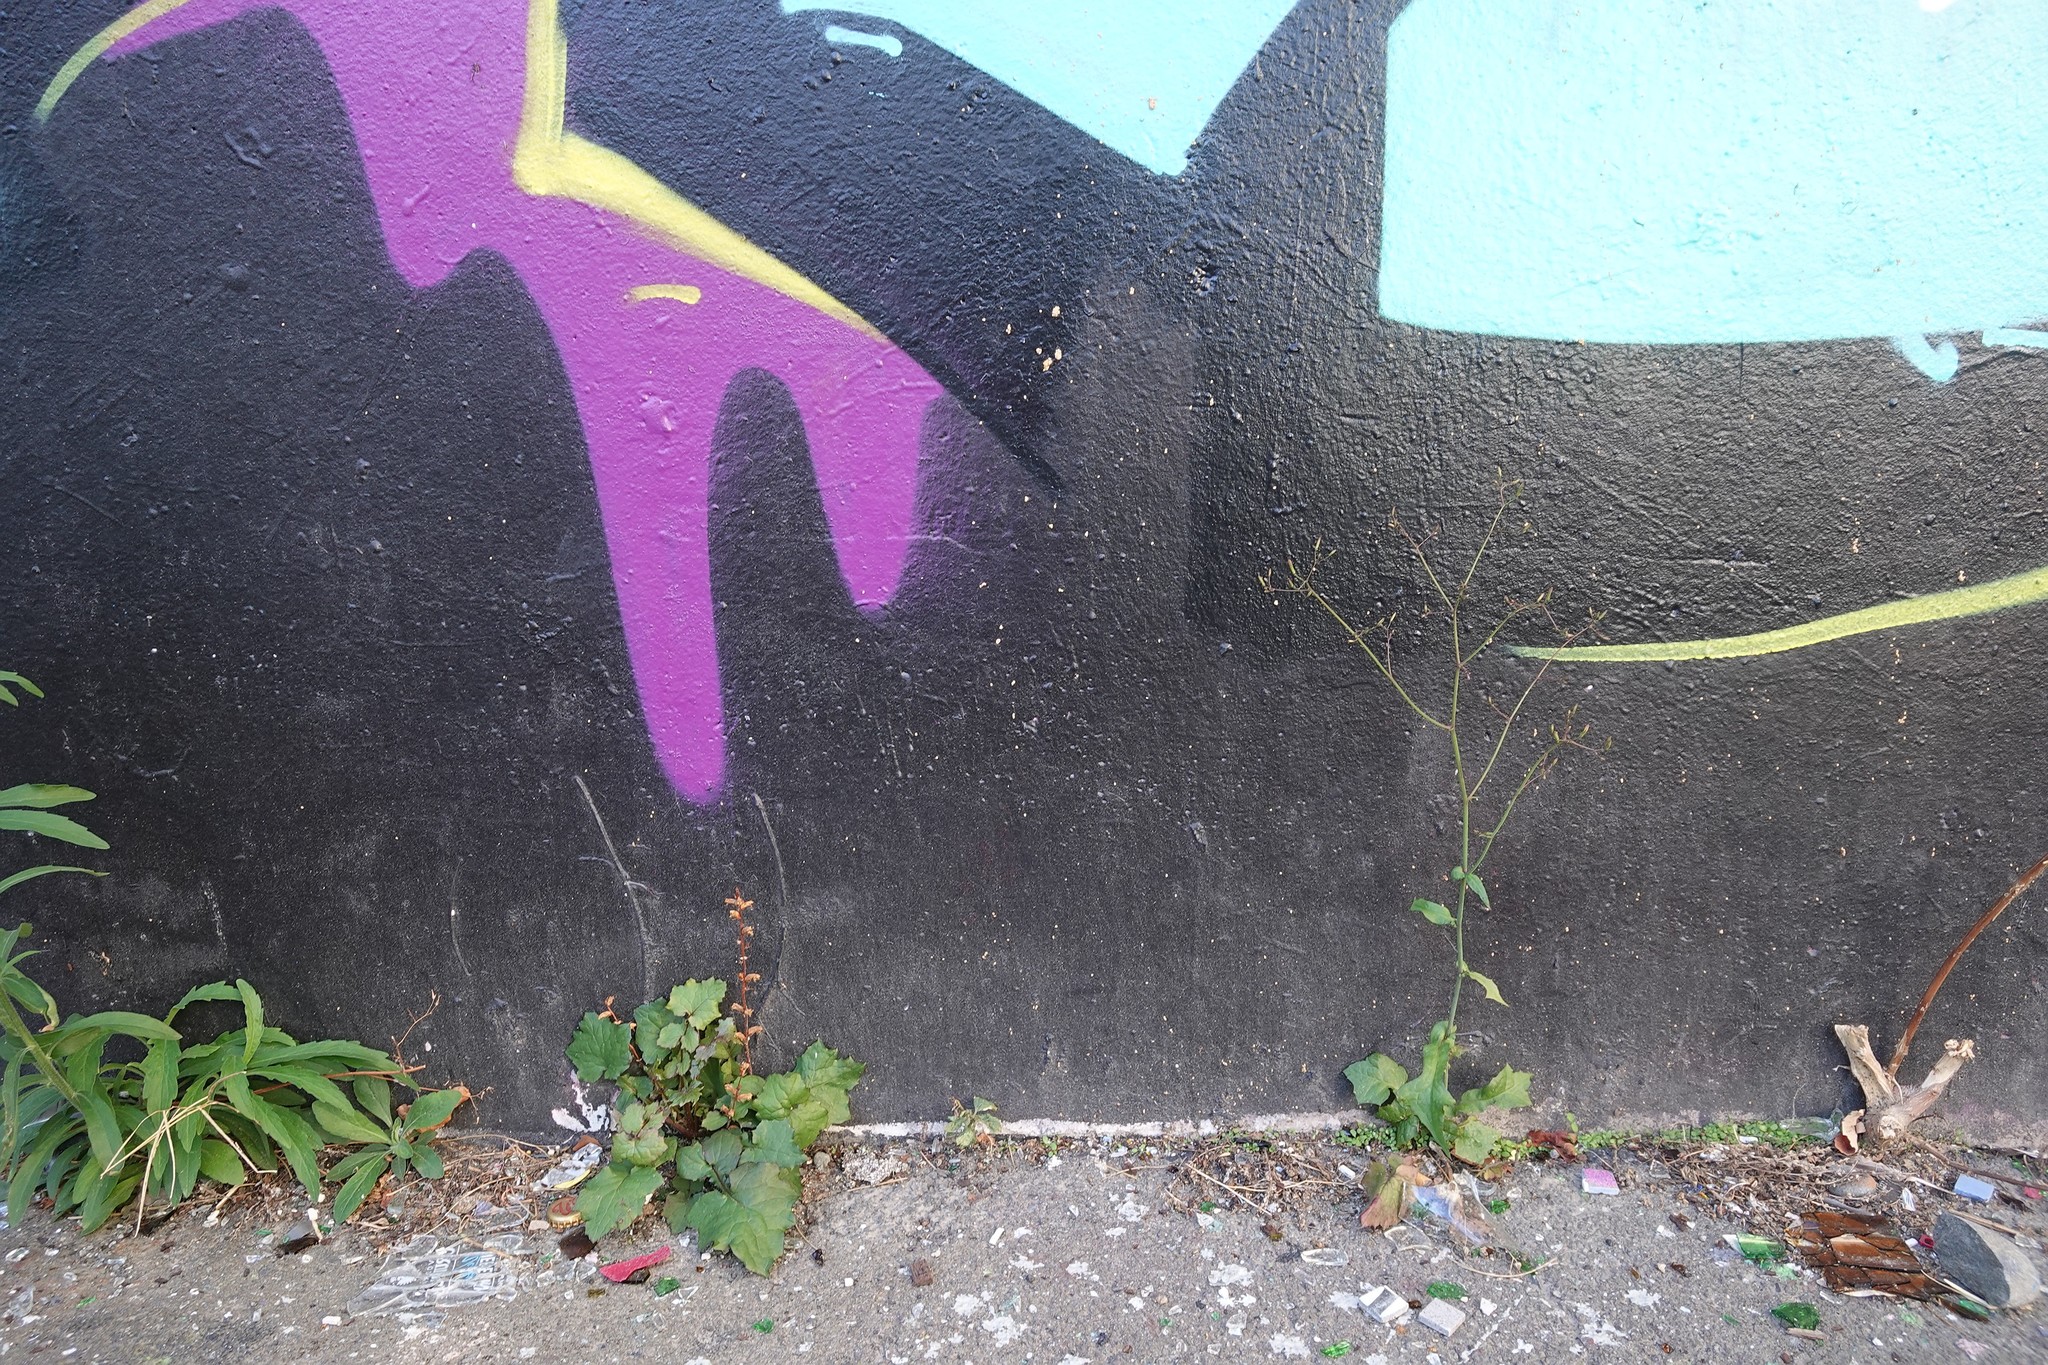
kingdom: Plantae
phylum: Tracheophyta
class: Magnoliopsida
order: Asterales
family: Asteraceae
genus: Mycelis
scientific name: Mycelis muralis
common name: Wall lettuce
